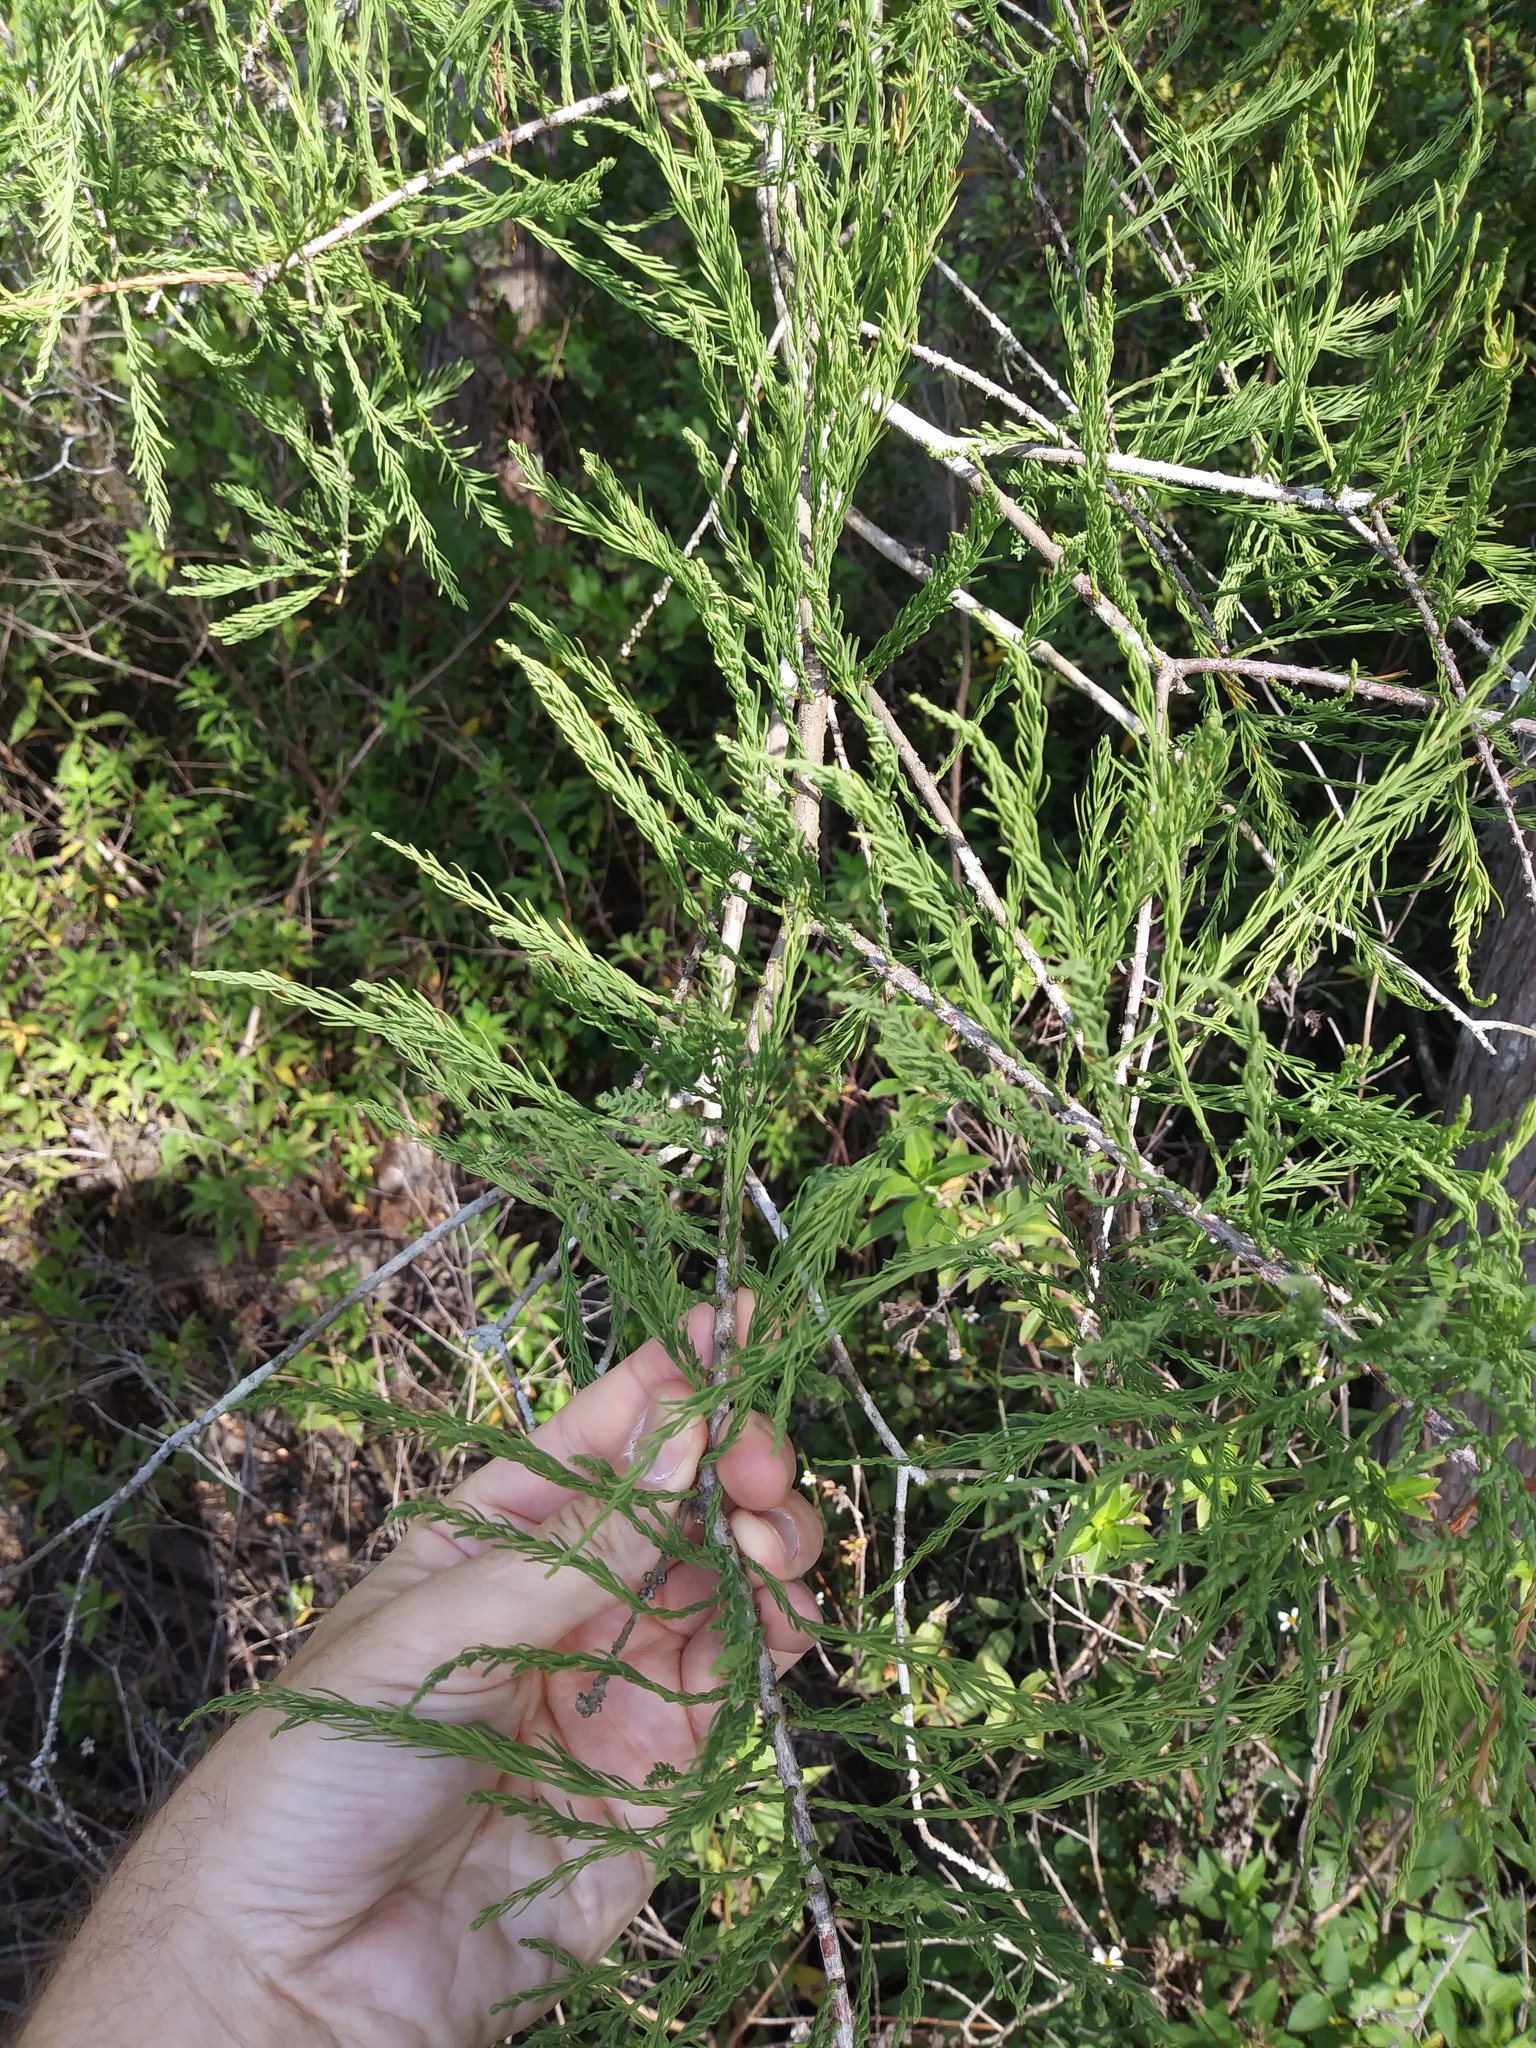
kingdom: Plantae
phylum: Tracheophyta
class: Pinopsida
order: Pinales
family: Cupressaceae
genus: Taxodium
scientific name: Taxodium distichum
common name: Bald cypress
